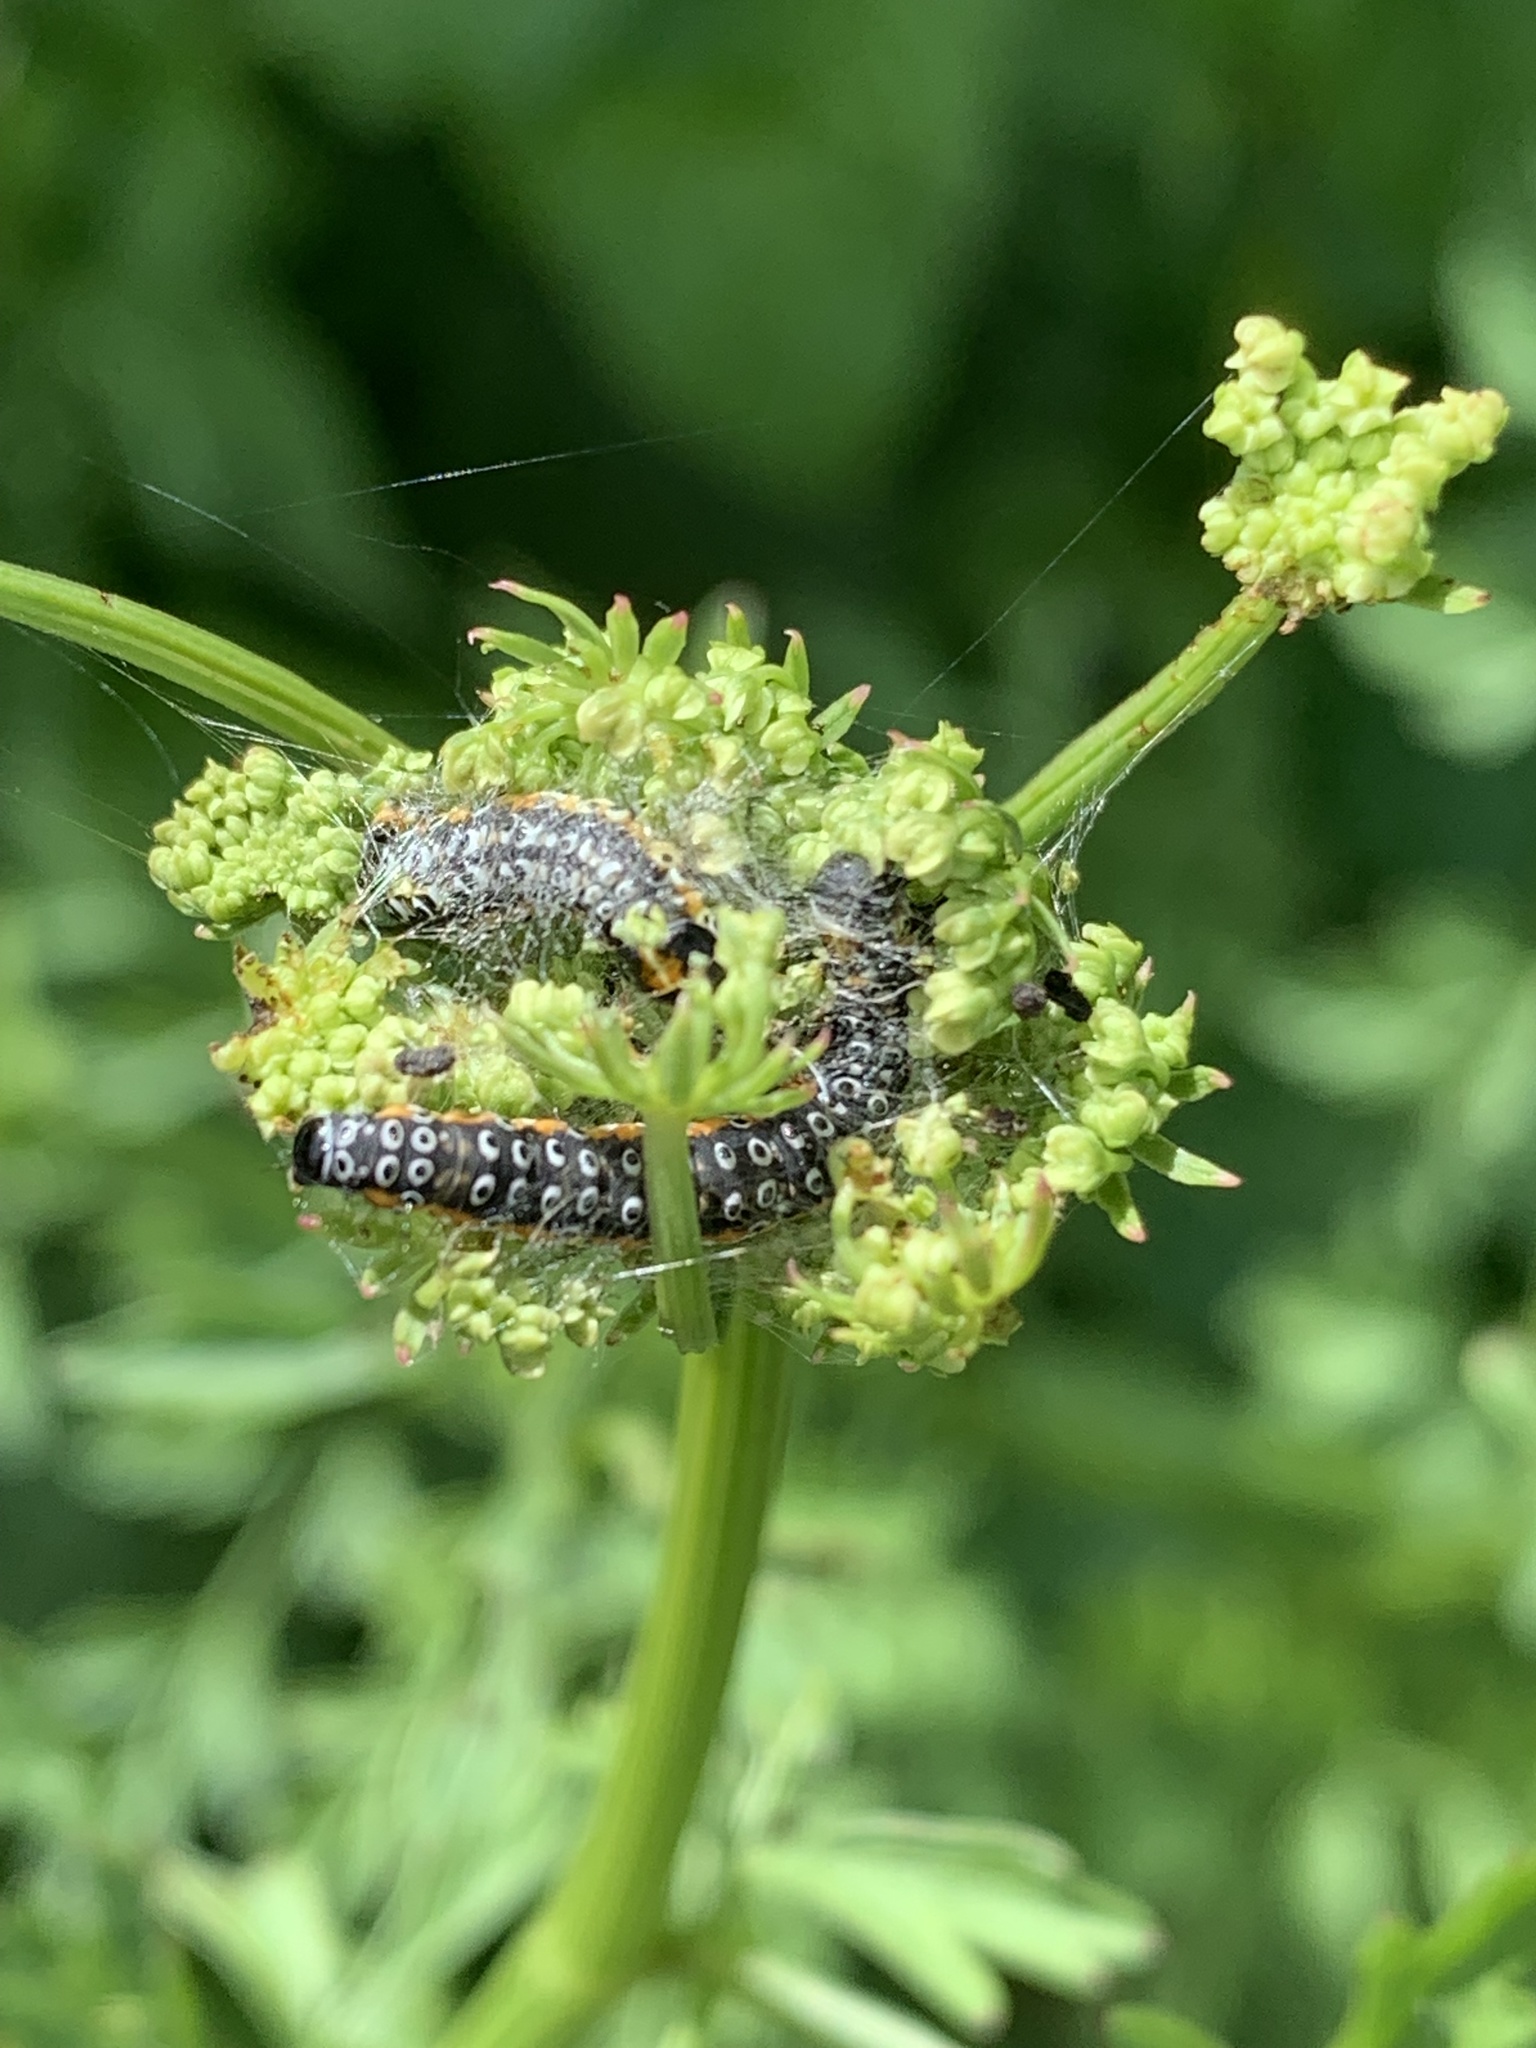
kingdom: Animalia
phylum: Arthropoda
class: Insecta
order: Lepidoptera
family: Depressariidae
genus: Depressaria
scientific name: Depressaria apiella
